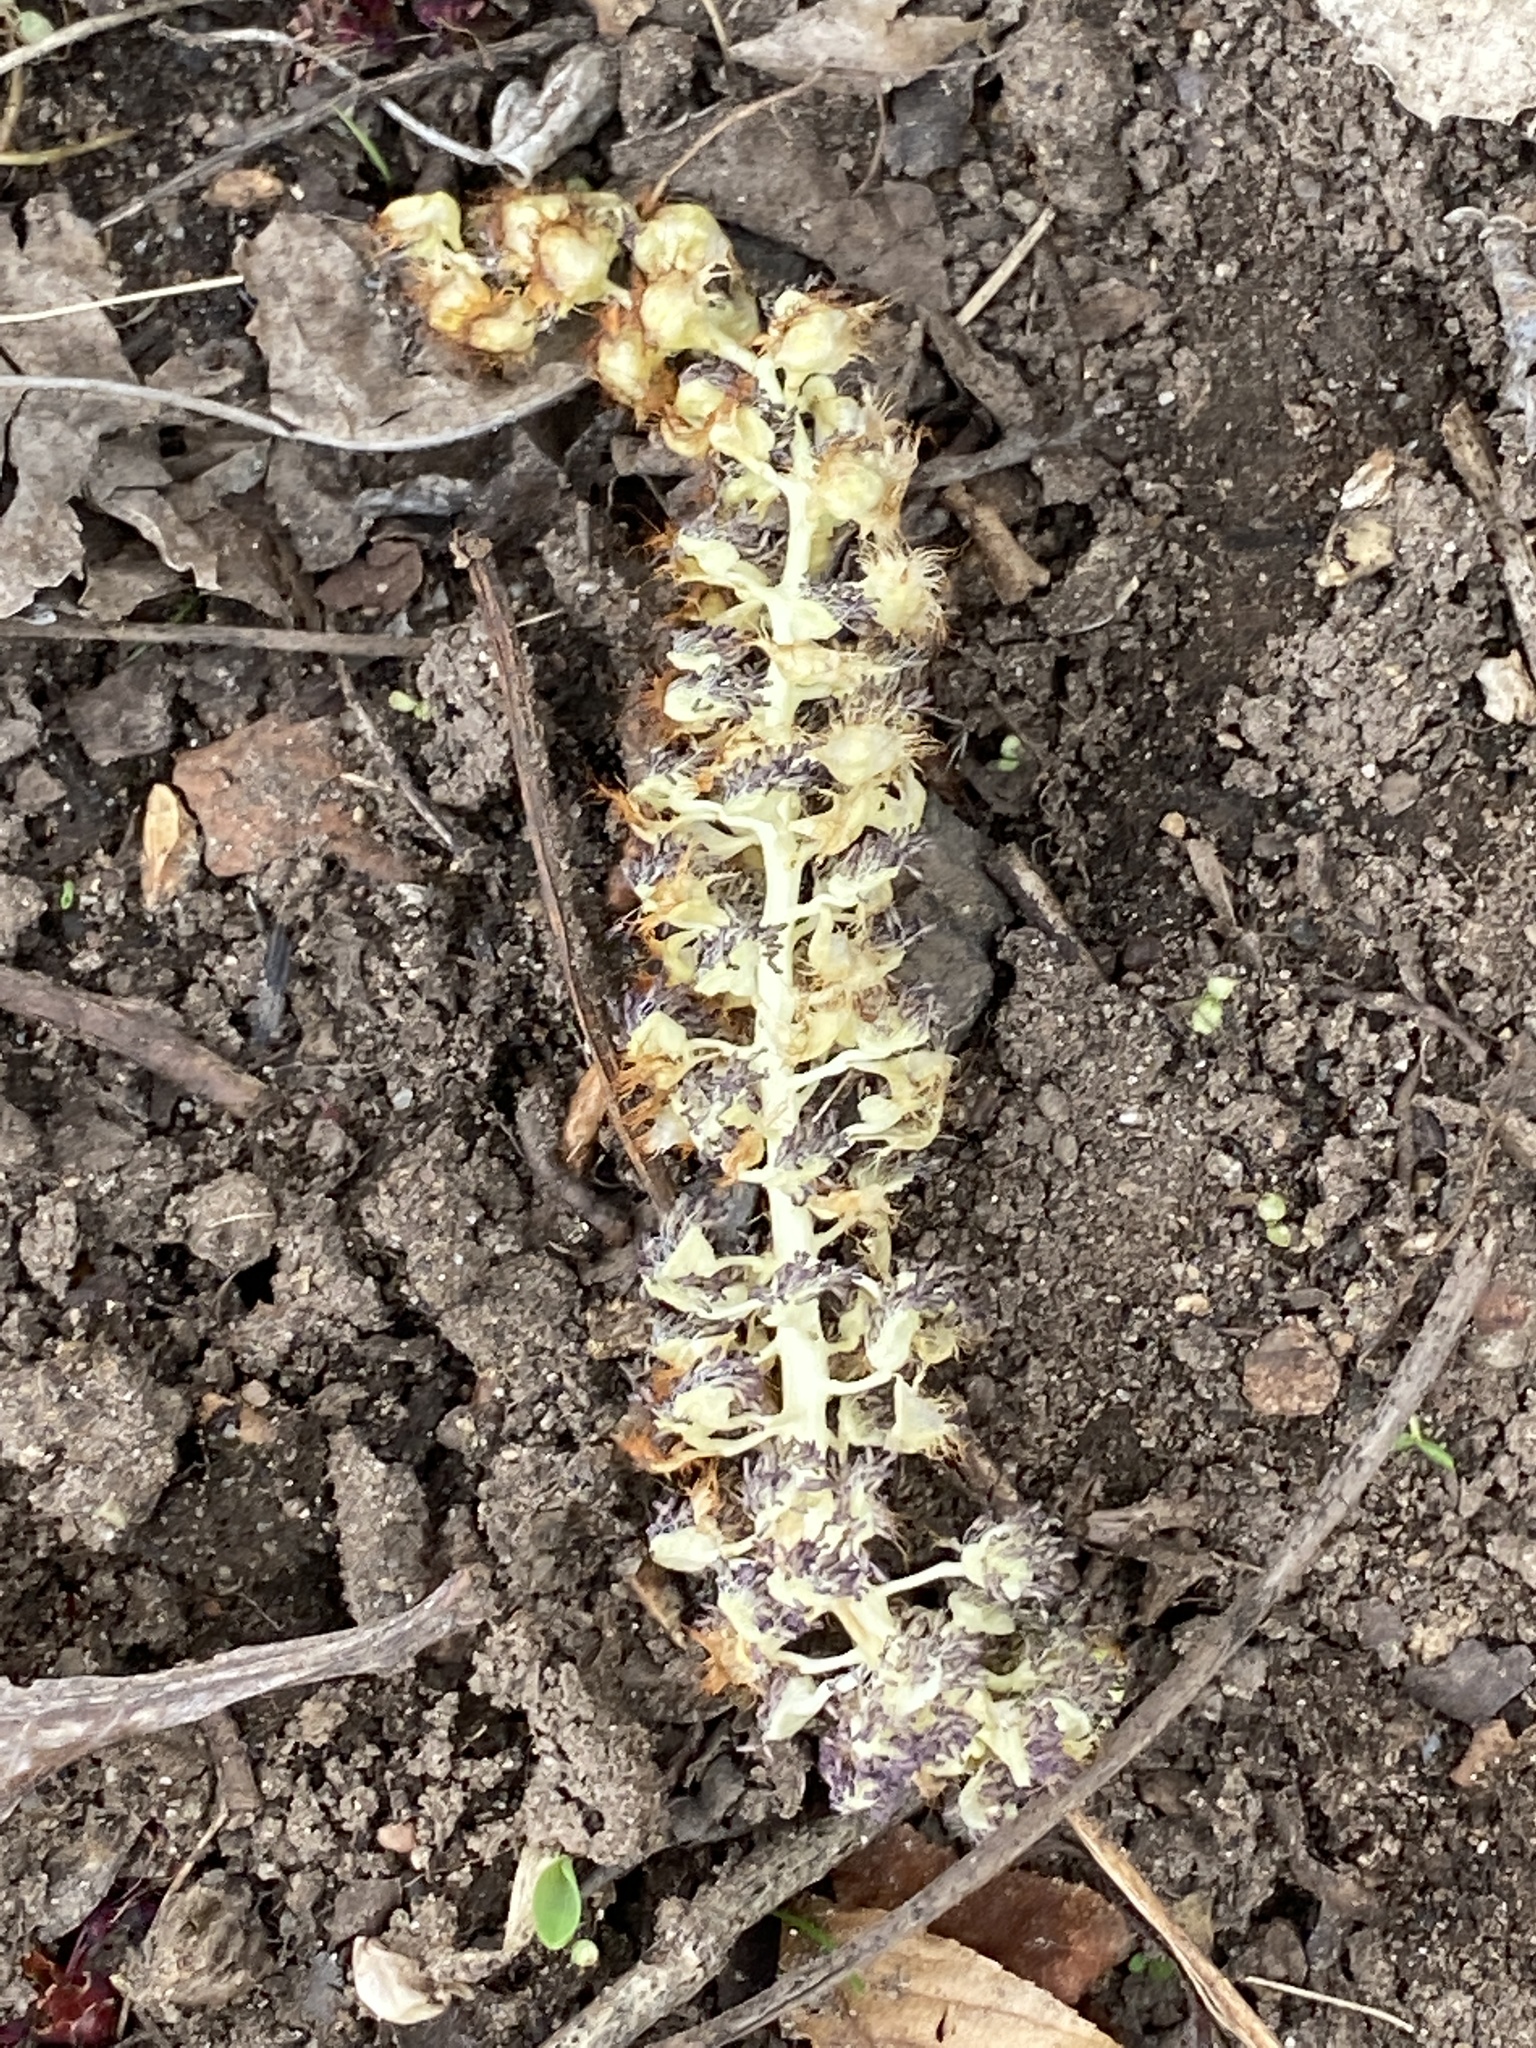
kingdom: Plantae
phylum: Tracheophyta
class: Magnoliopsida
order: Sapindales
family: Sapindaceae
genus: Aesculus
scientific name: Aesculus flava
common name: Yellow buckeye
